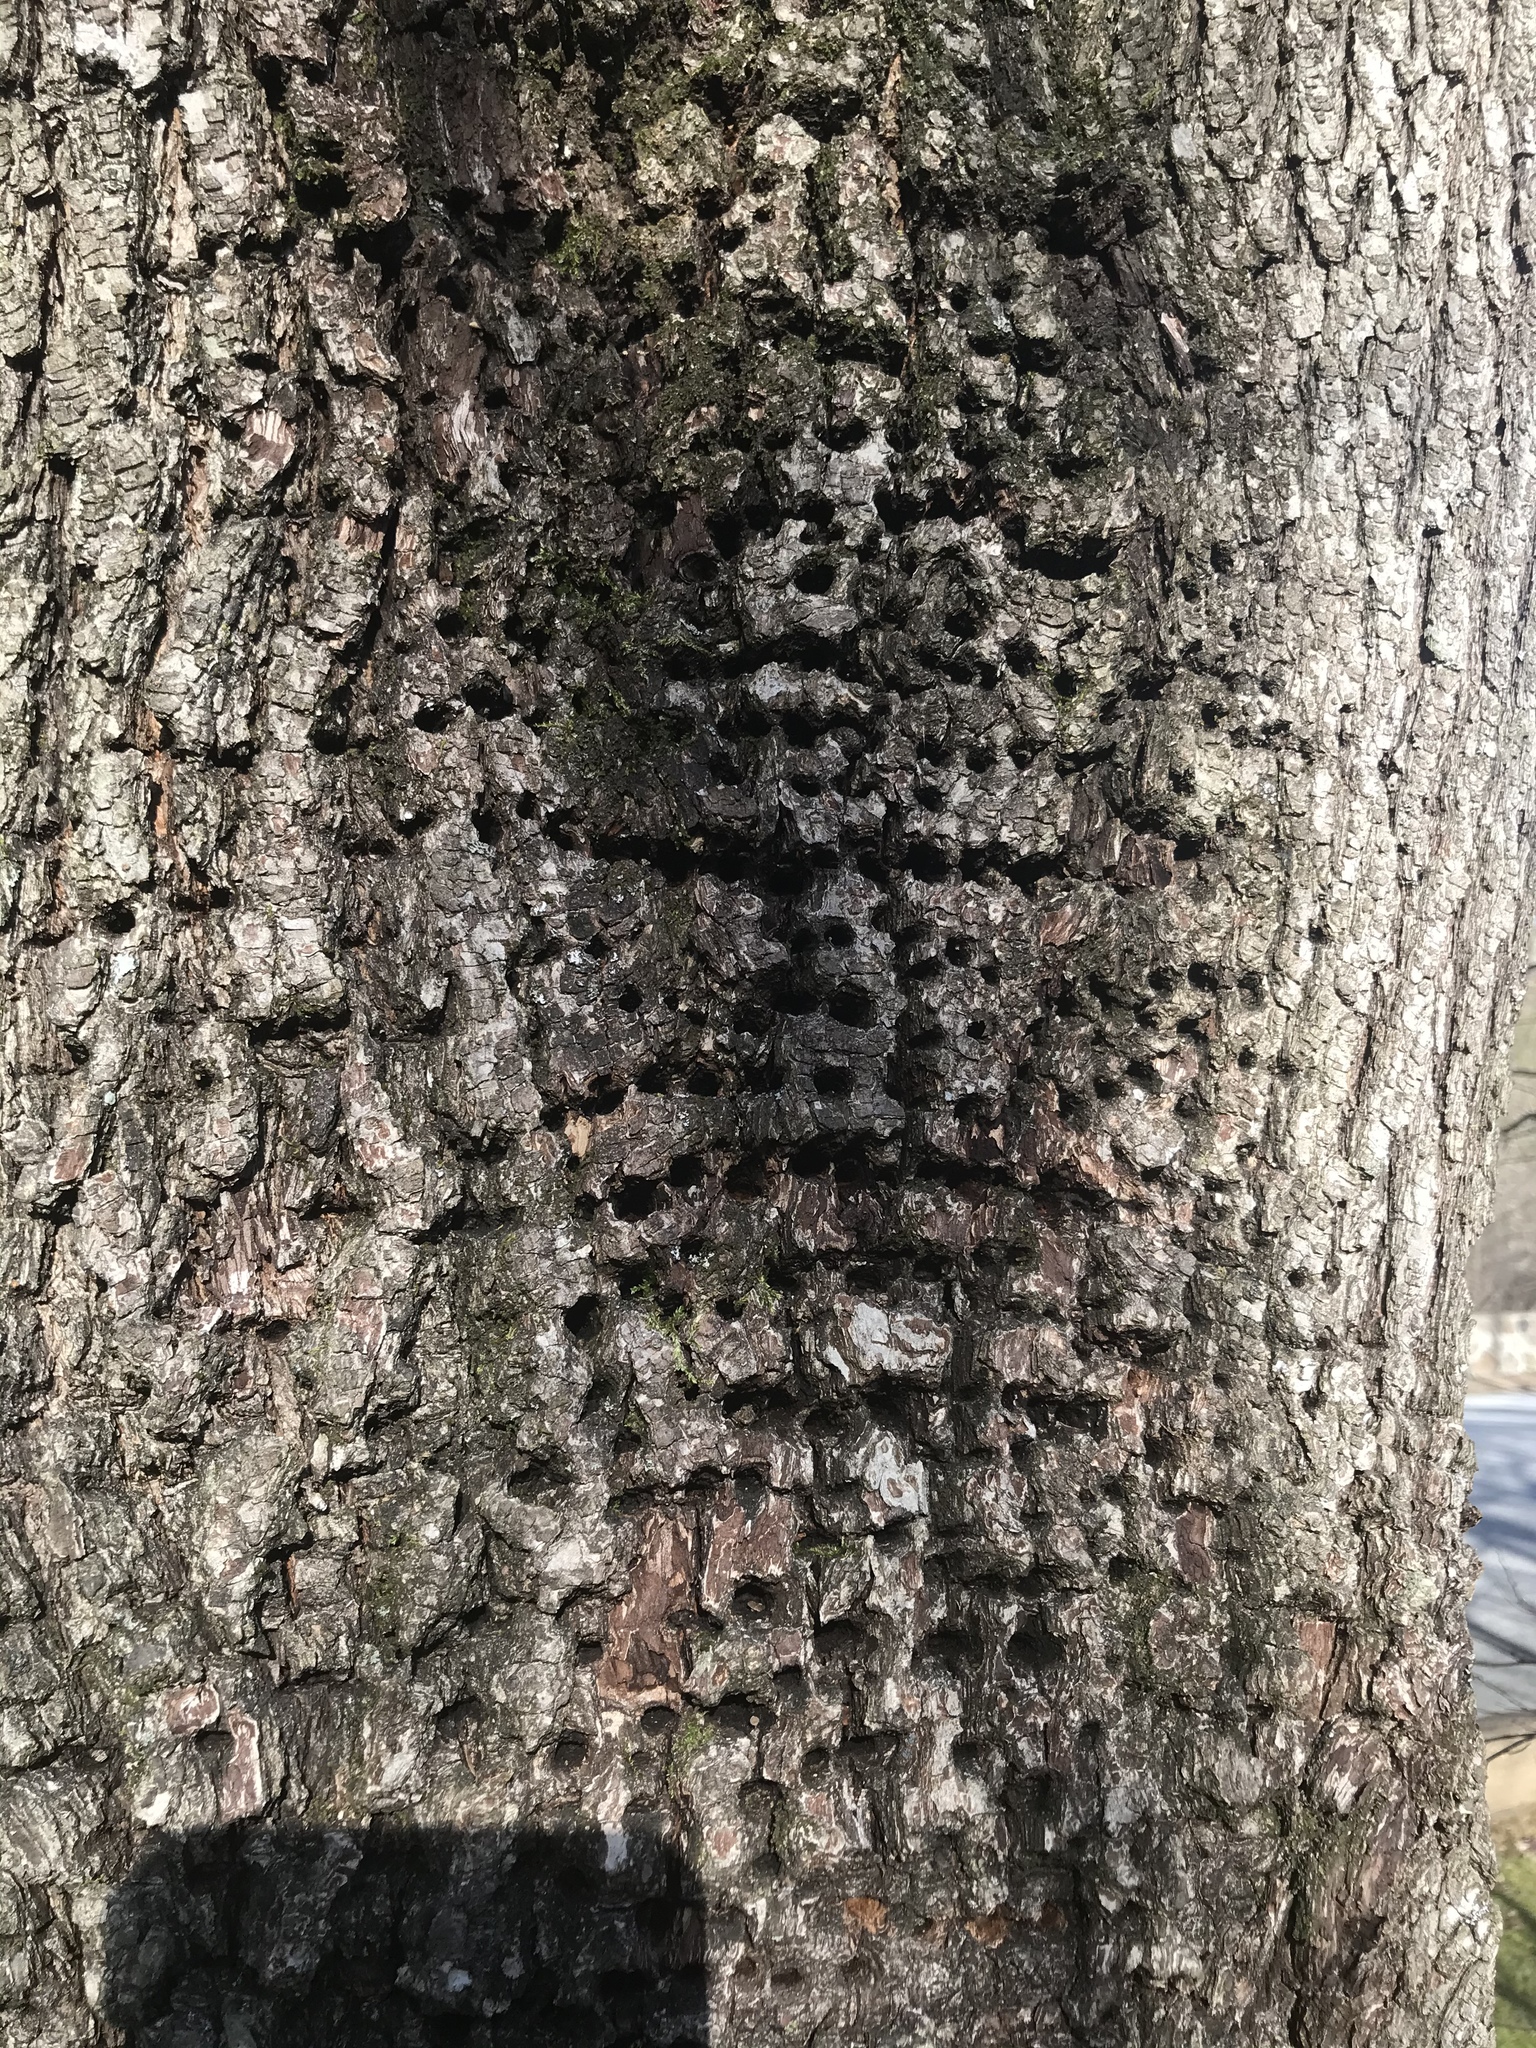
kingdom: Animalia
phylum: Chordata
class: Aves
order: Piciformes
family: Picidae
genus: Sphyrapicus
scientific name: Sphyrapicus varius
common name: Yellow-bellied sapsucker
